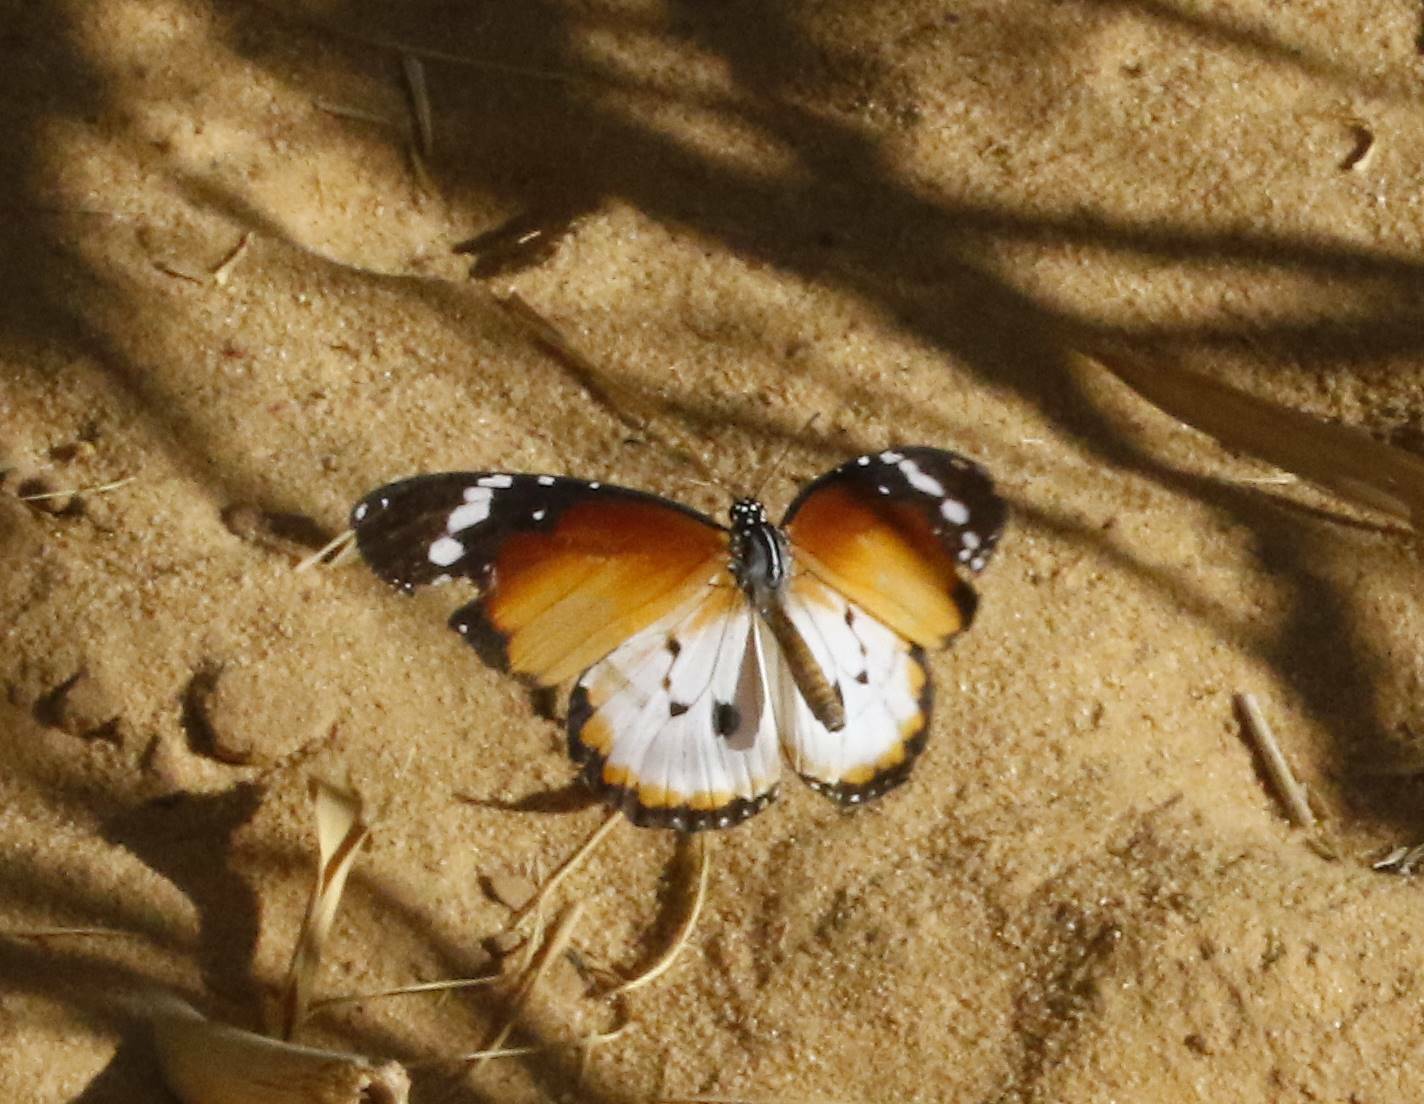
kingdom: Animalia
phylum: Arthropoda
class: Insecta
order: Lepidoptera
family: Nymphalidae
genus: Danaus
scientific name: Danaus chrysippus
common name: Plain tiger
